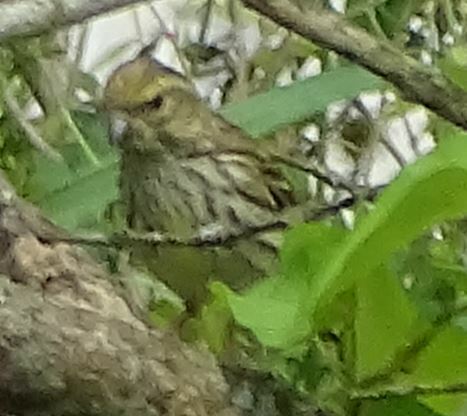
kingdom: Animalia
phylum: Chordata
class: Aves
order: Passeriformes
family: Fringillidae
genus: Serinus
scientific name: Serinus serinus
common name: European serin
